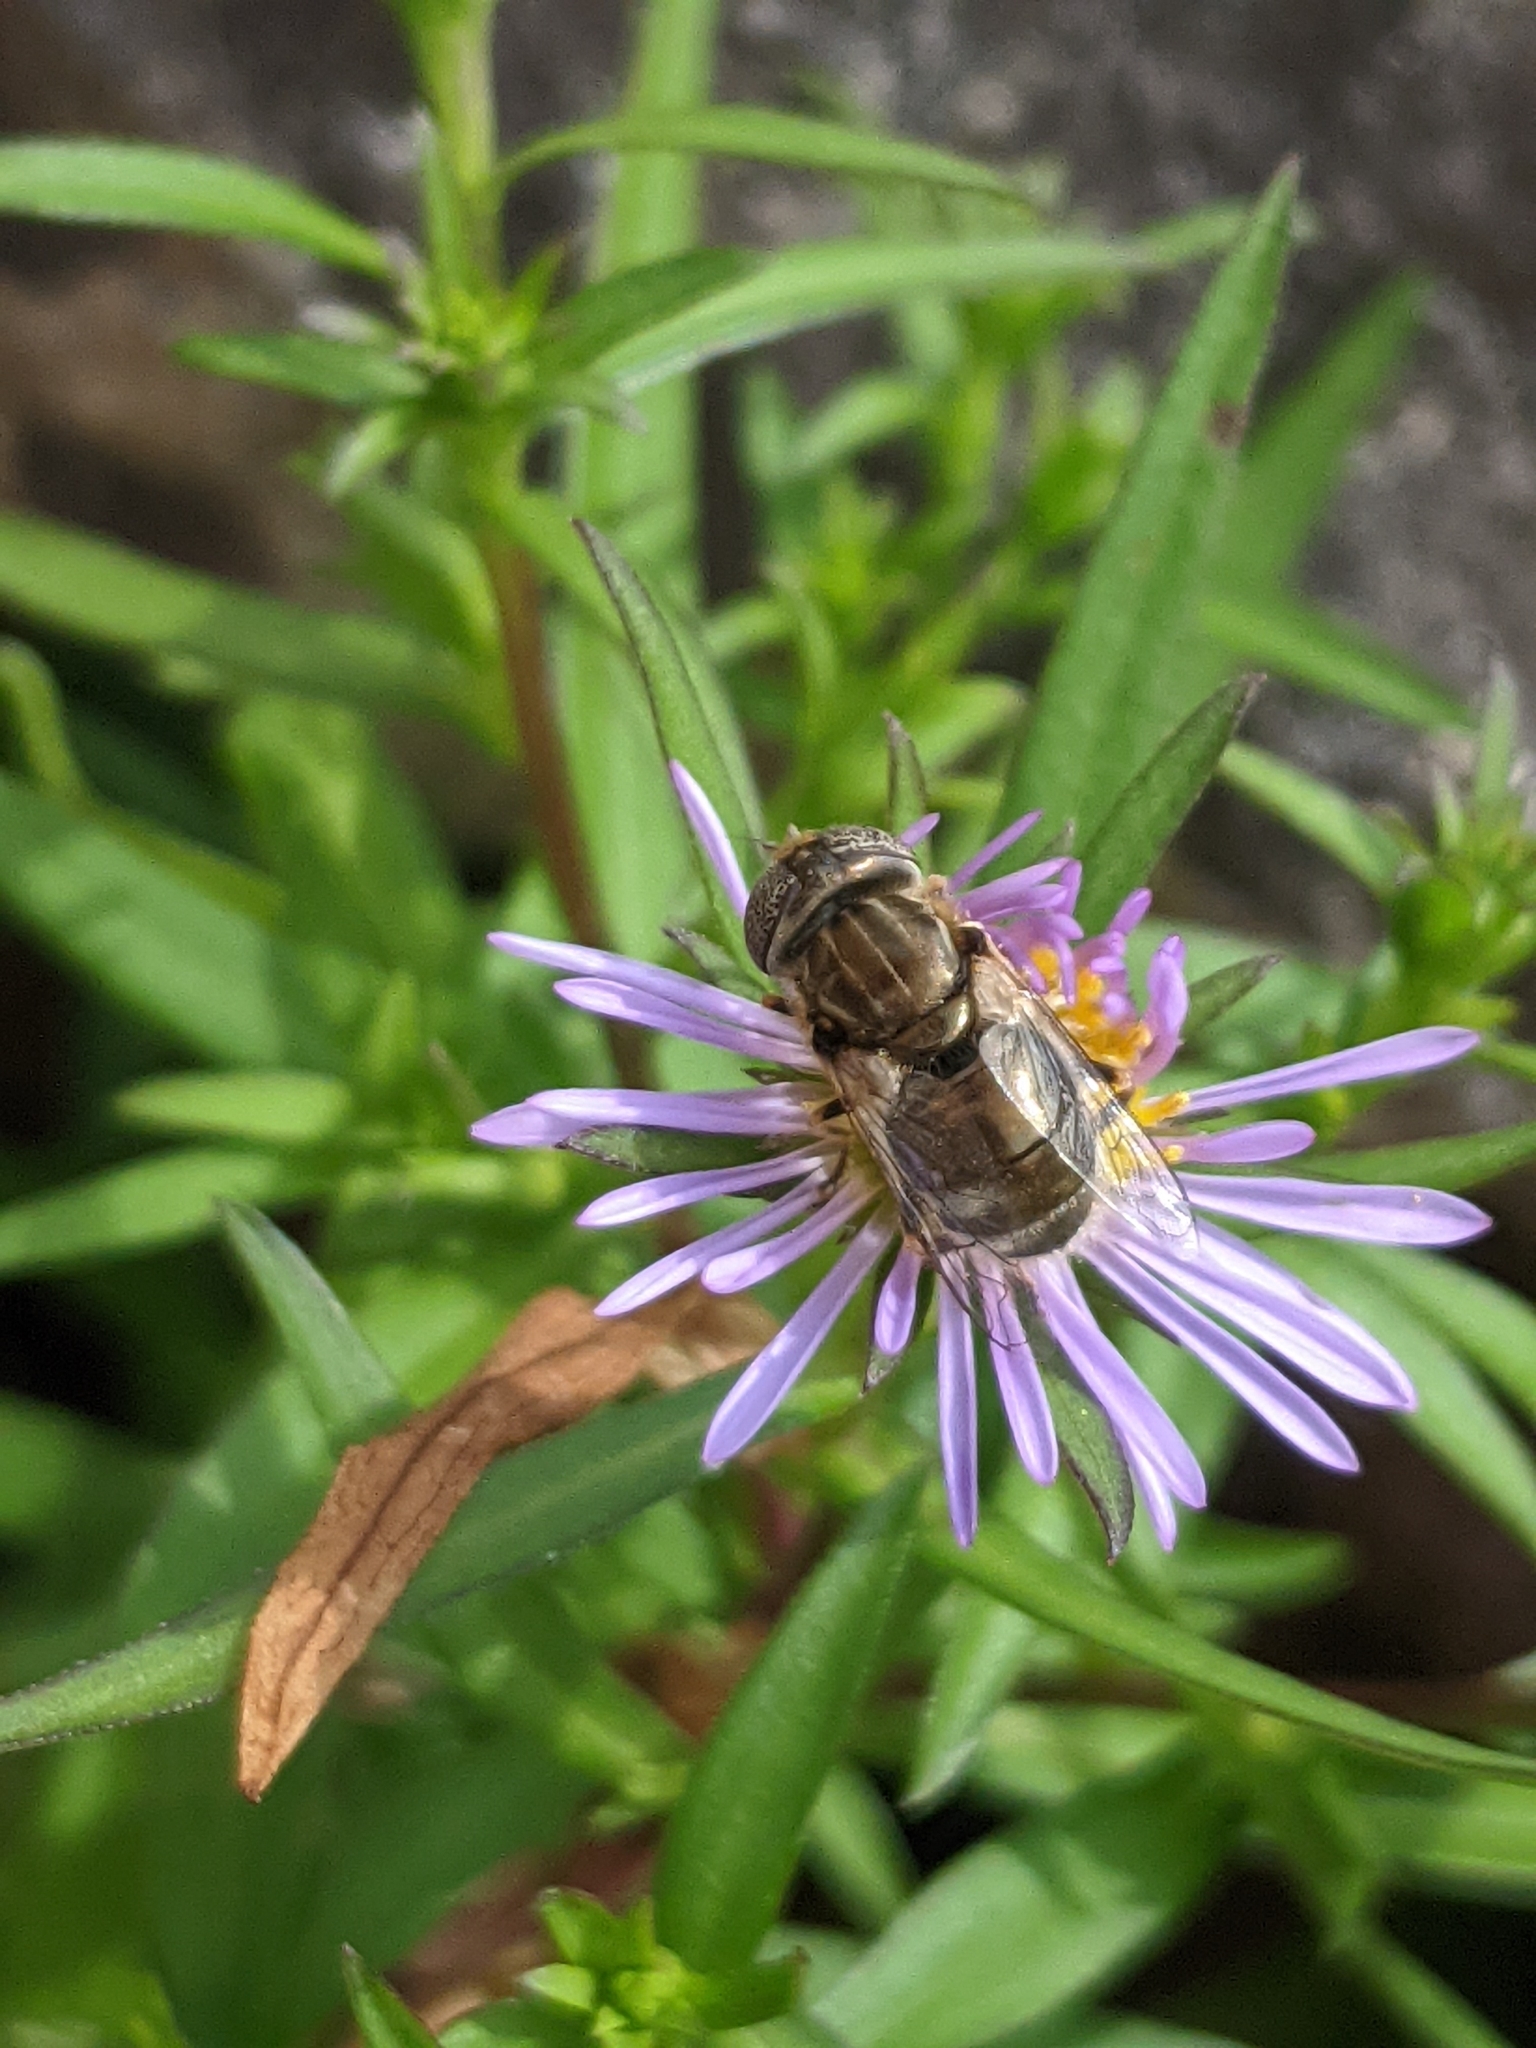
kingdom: Animalia
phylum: Arthropoda
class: Insecta
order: Diptera
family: Syrphidae
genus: Eristalinus
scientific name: Eristalinus aeneus
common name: Syrphid fly
